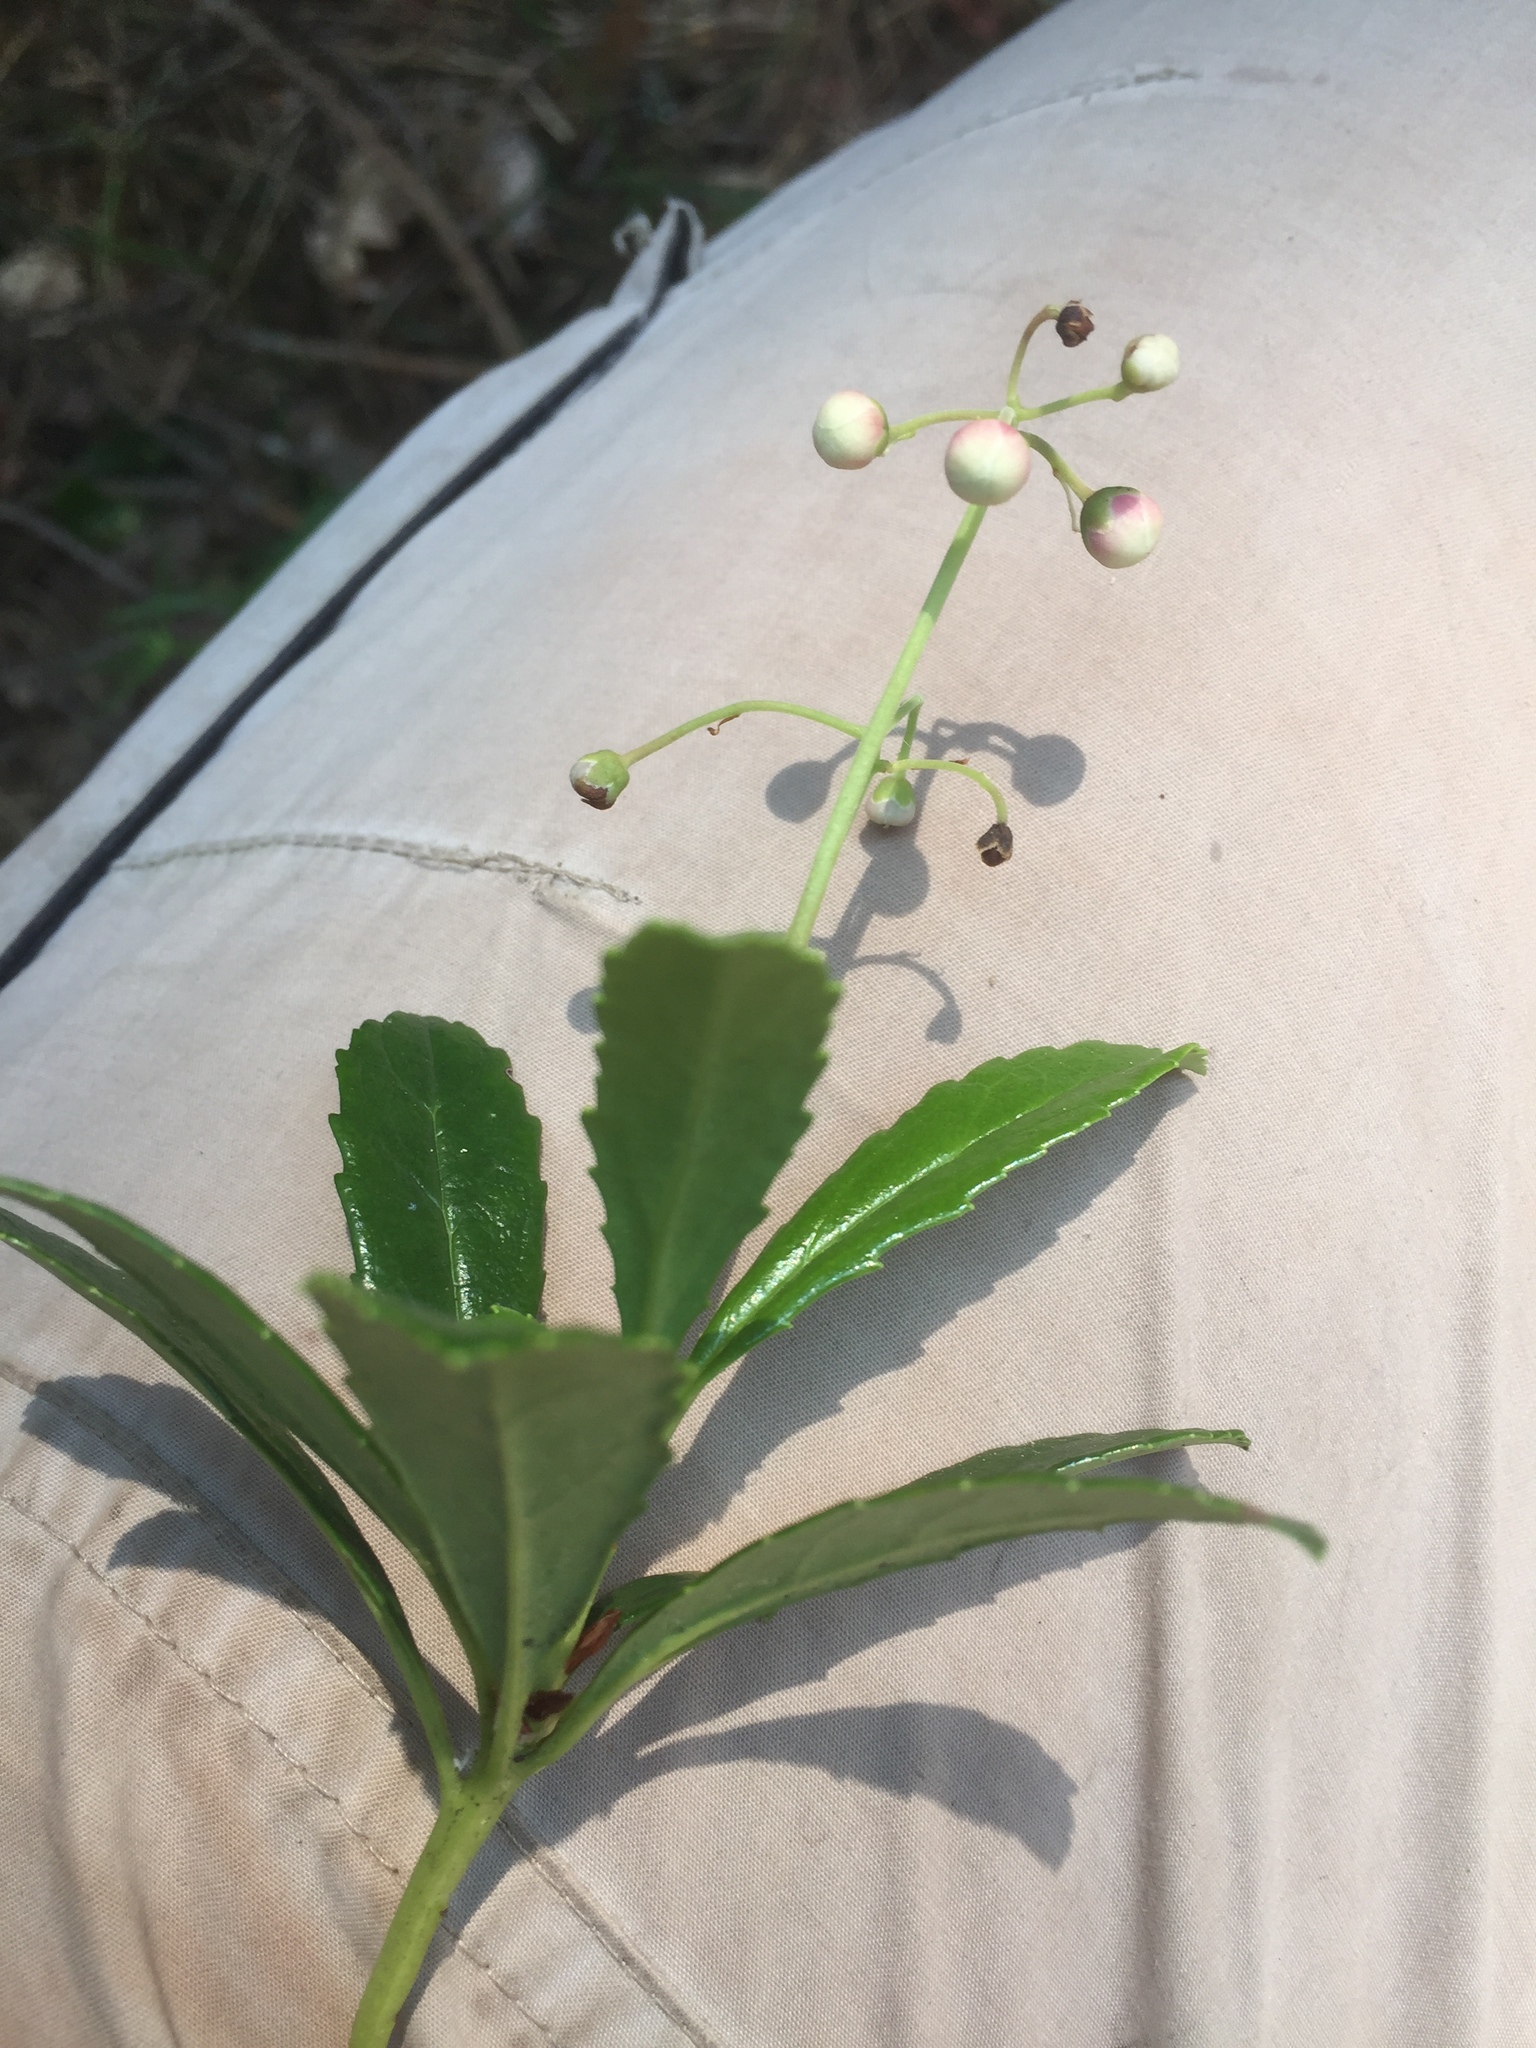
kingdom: Plantae
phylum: Tracheophyta
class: Magnoliopsida
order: Ericales
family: Ericaceae
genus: Chimaphila
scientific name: Chimaphila umbellata
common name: Pipsissewa
